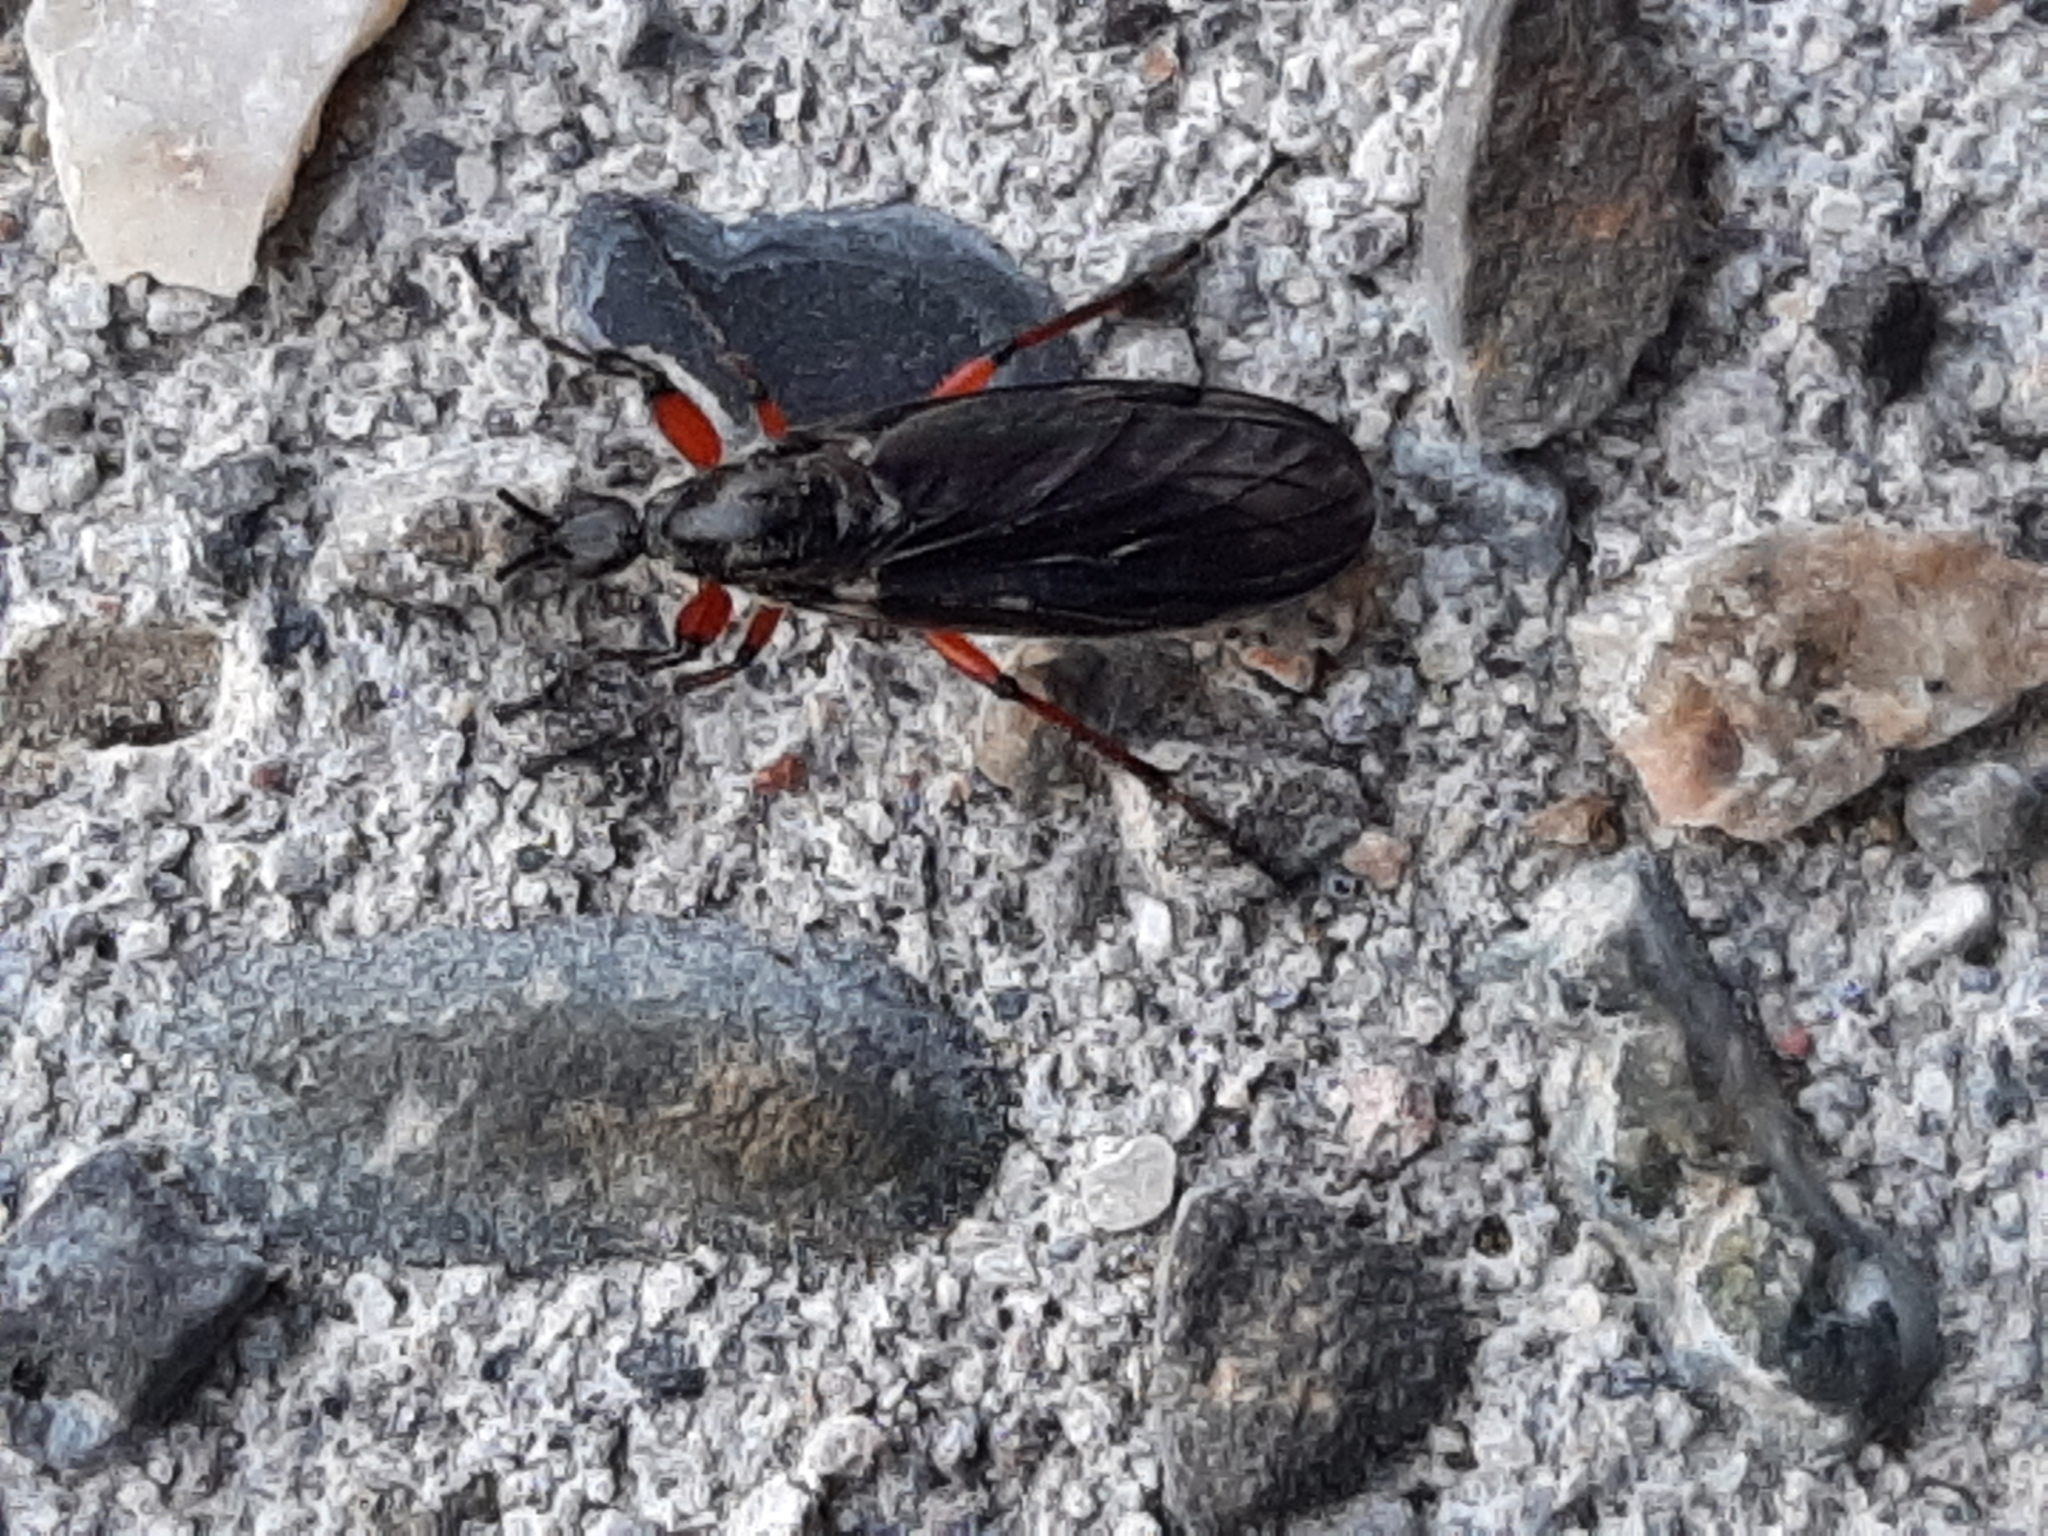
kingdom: Animalia
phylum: Arthropoda
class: Insecta
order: Diptera
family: Bibionidae
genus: Bibio
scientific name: Bibio
